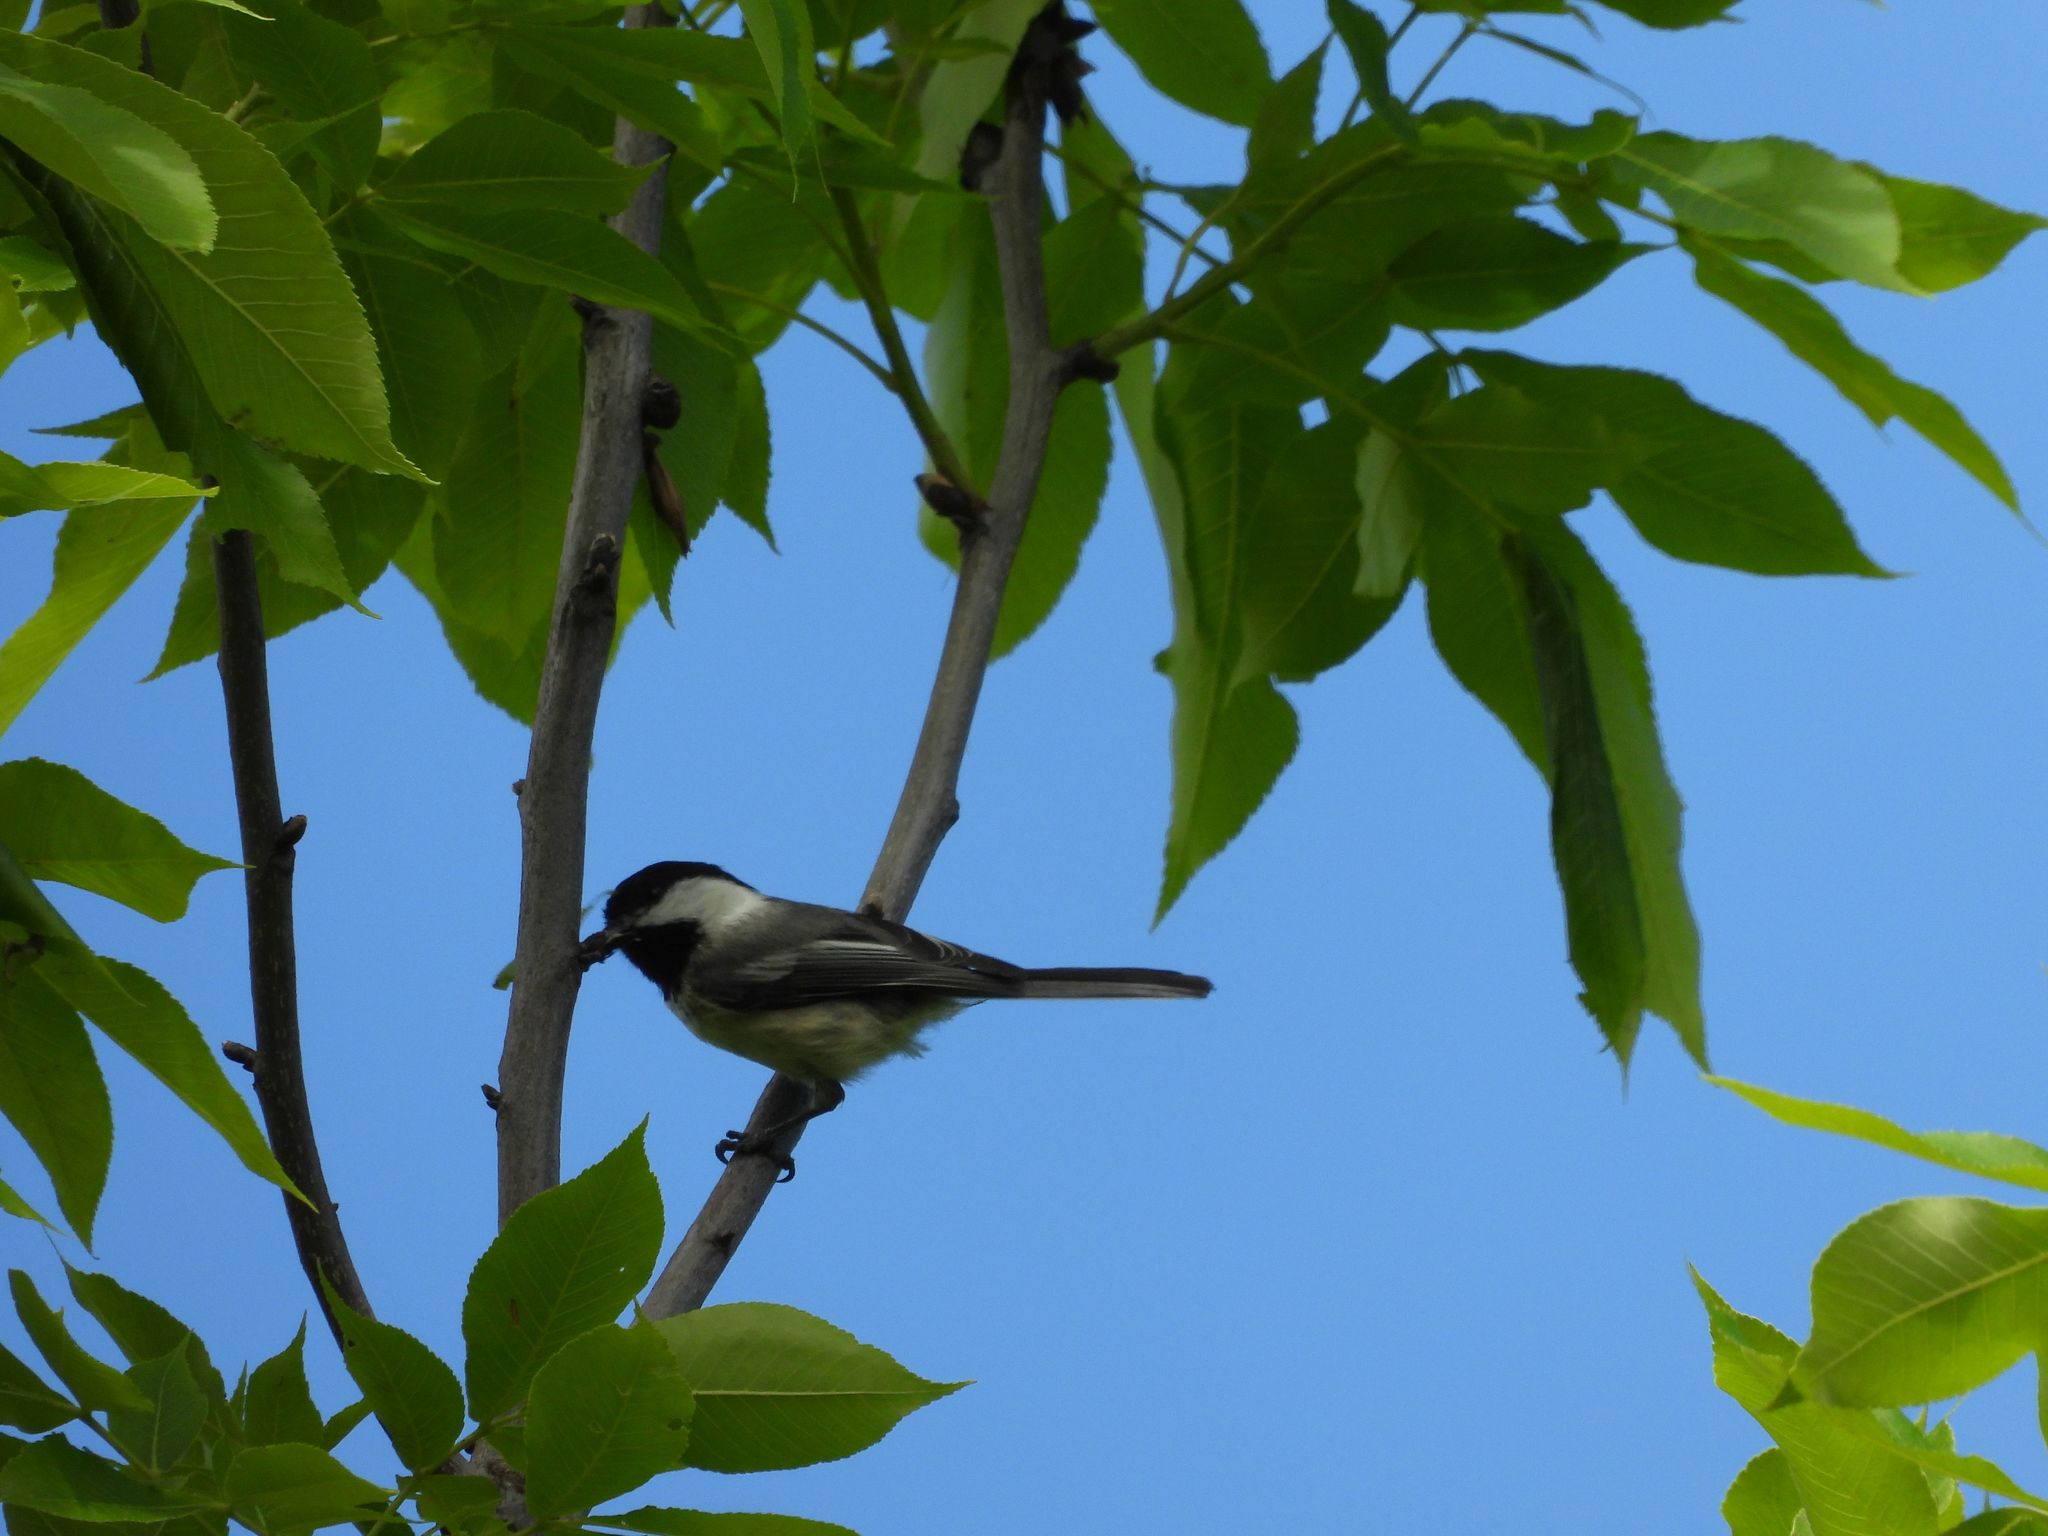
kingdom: Animalia
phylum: Chordata
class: Aves
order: Passeriformes
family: Paridae
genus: Poecile
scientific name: Poecile atricapillus
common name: Black-capped chickadee
